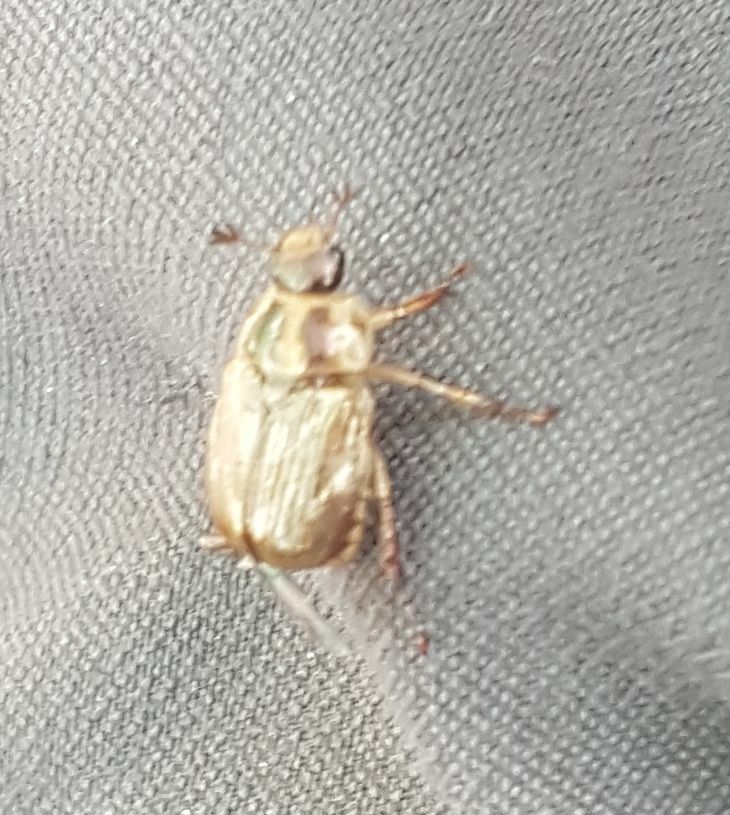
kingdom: Animalia
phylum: Arthropoda
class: Insecta
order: Coleoptera
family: Scarabaeidae
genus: Exomala
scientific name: Exomala orientalis
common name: Oriental beetle
